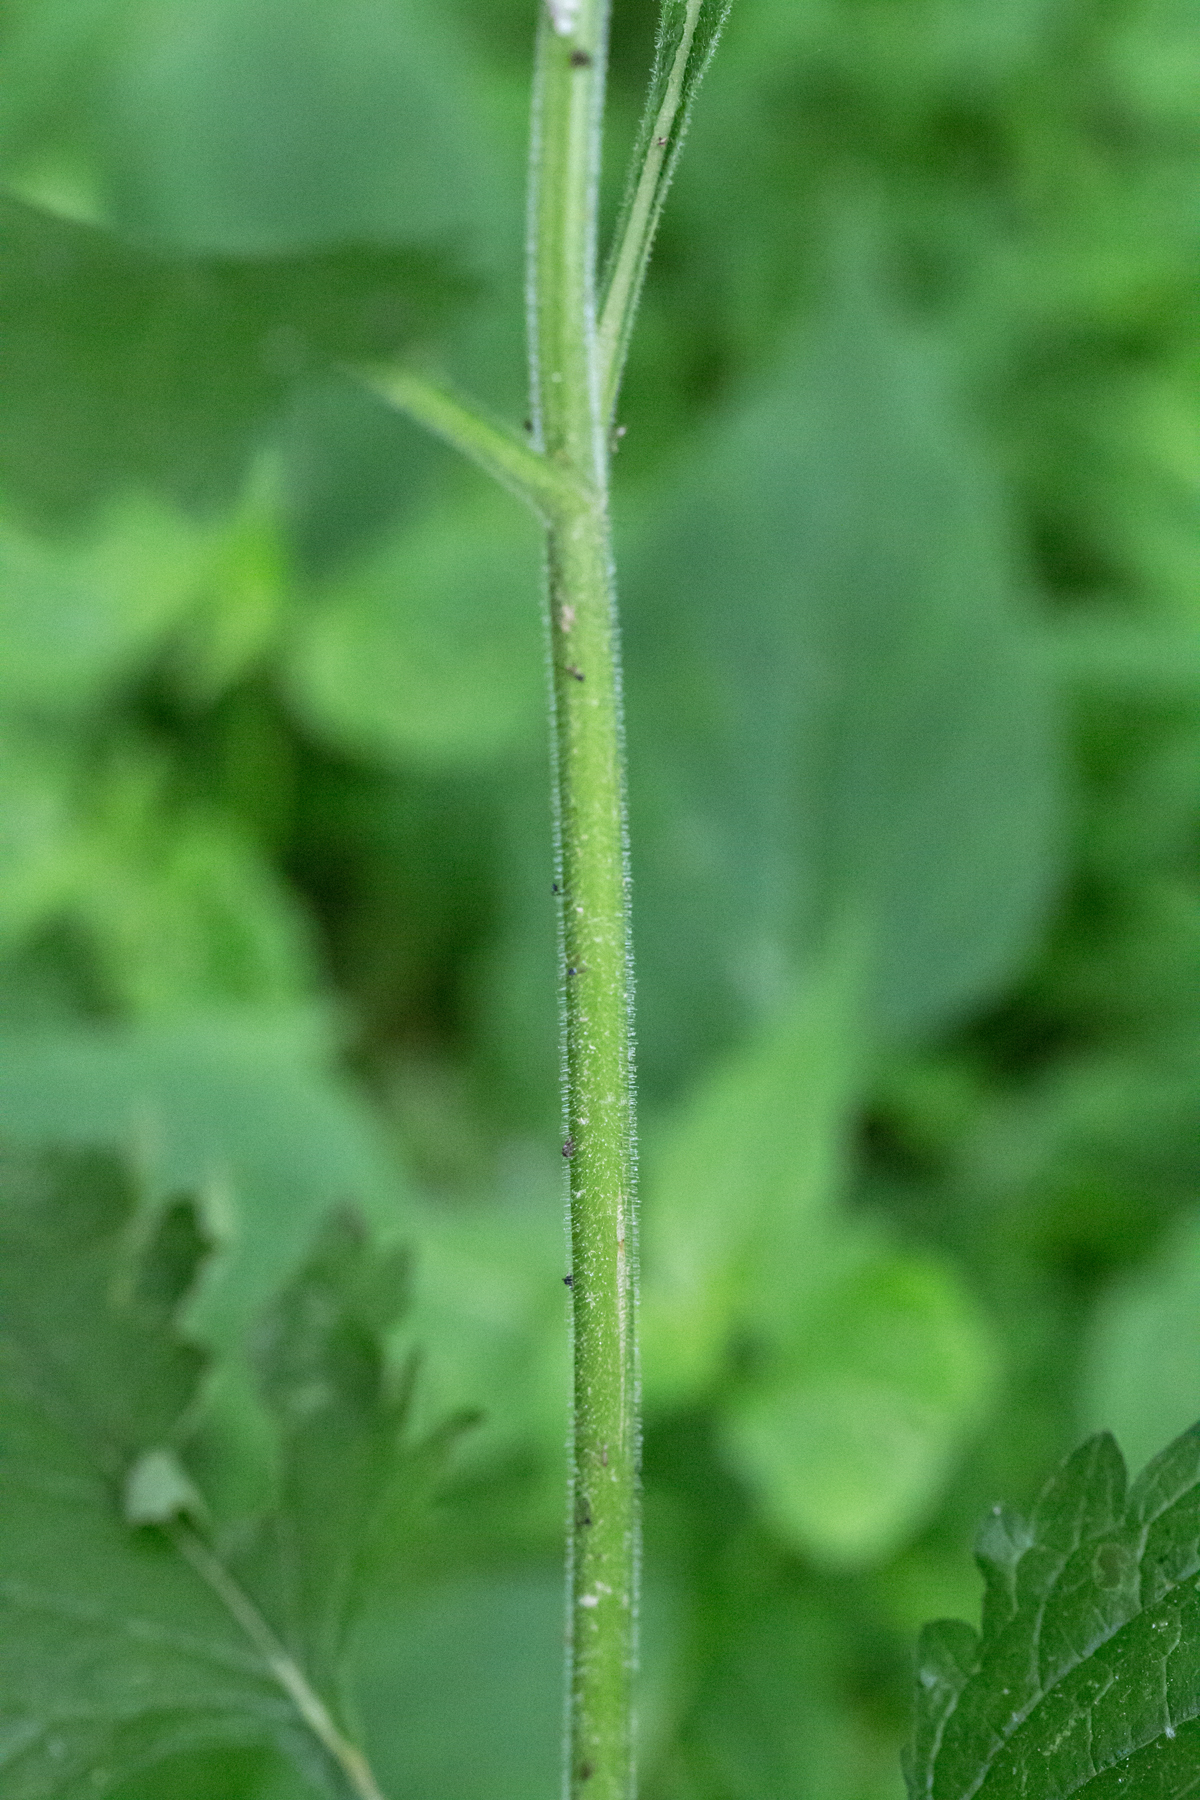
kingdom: Plantae
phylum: Tracheophyta
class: Magnoliopsida
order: Lamiales
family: Verbenaceae
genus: Verbena
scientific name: Verbena urticifolia
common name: Nettle-leaved vervain
